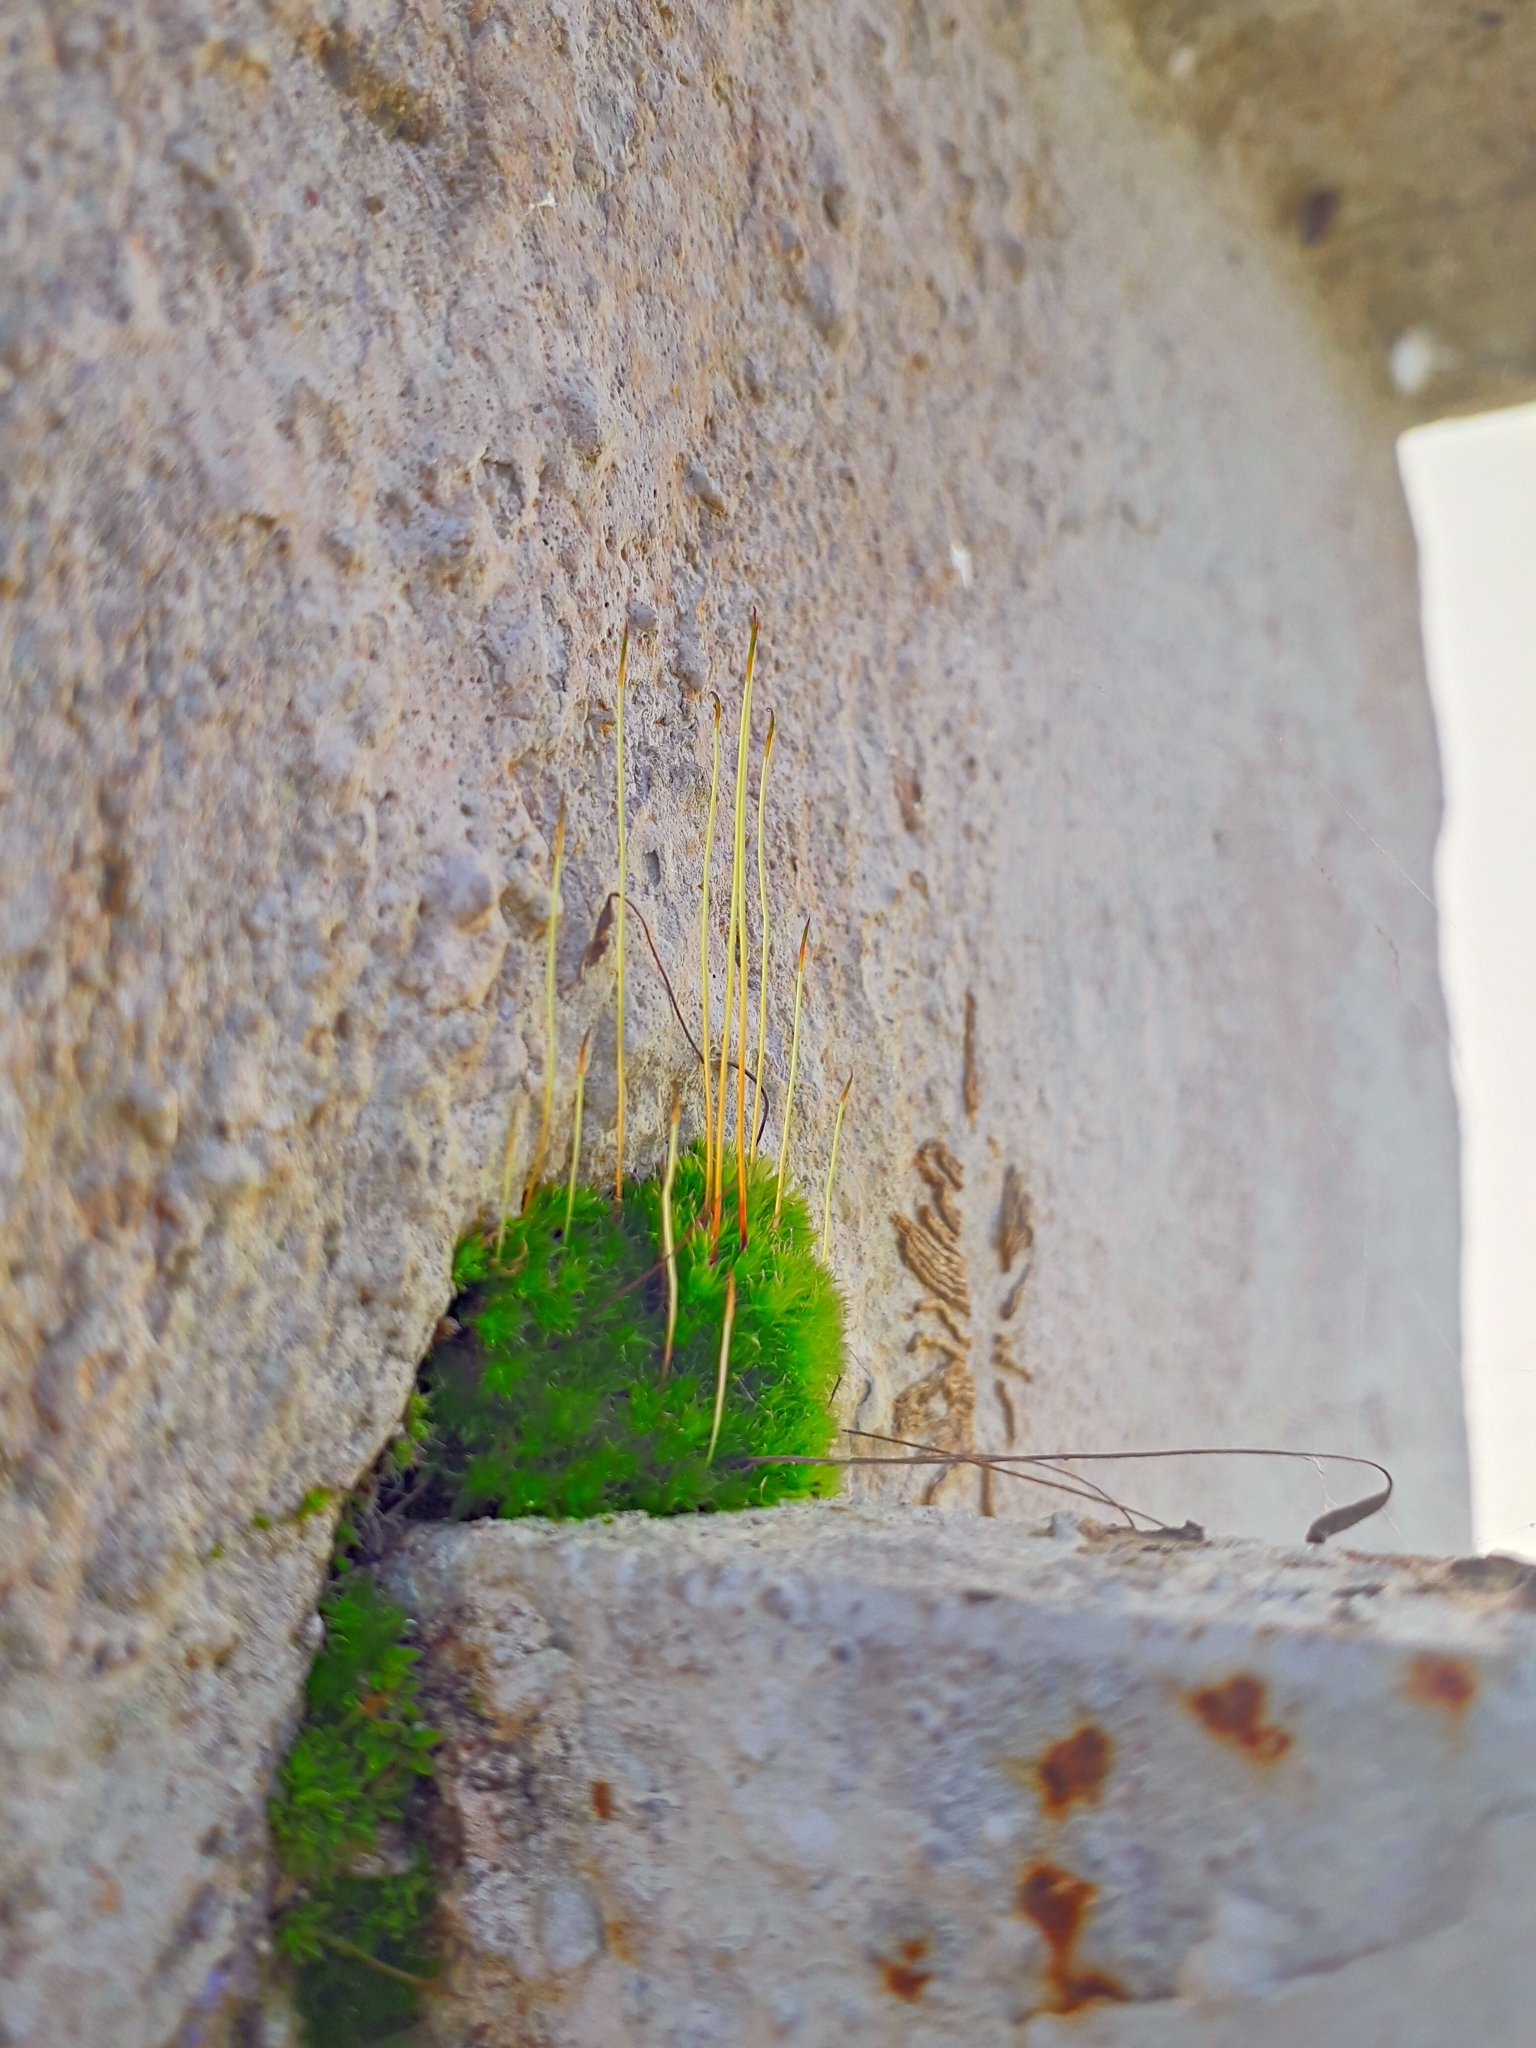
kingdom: Plantae
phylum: Bryophyta
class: Bryopsida
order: Pottiales
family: Pottiaceae
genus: Tortula
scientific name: Tortula muralis
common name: Wall screw-moss
